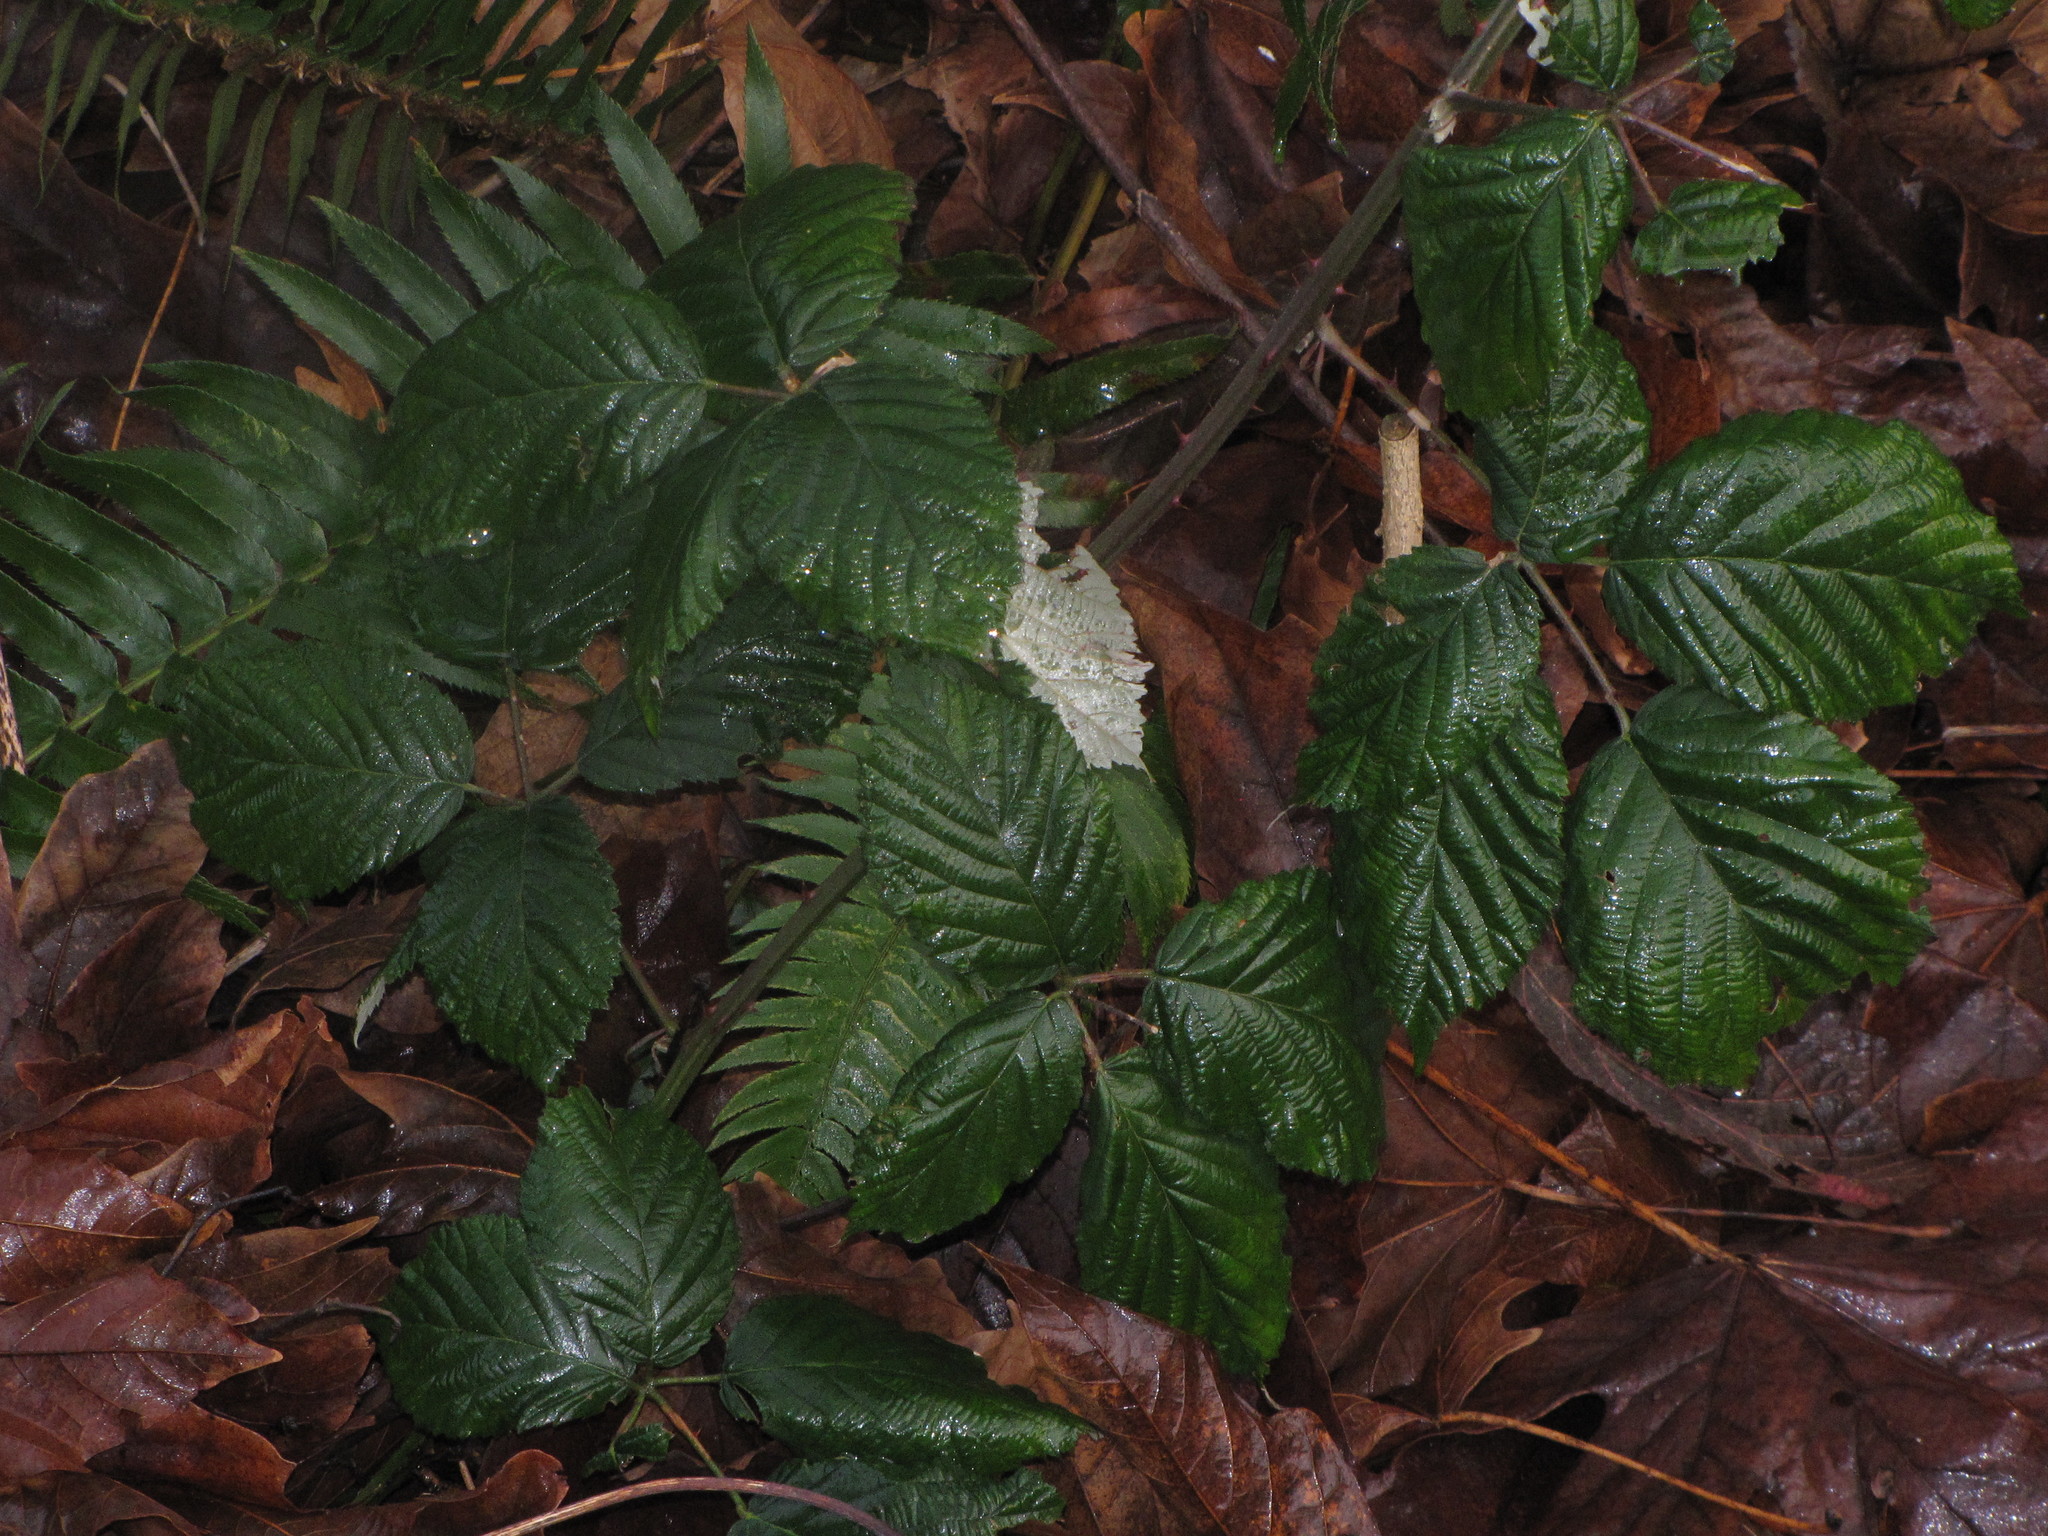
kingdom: Plantae
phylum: Tracheophyta
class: Magnoliopsida
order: Rosales
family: Rosaceae
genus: Rubus
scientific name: Rubus armeniacus
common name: Himalayan blackberry
